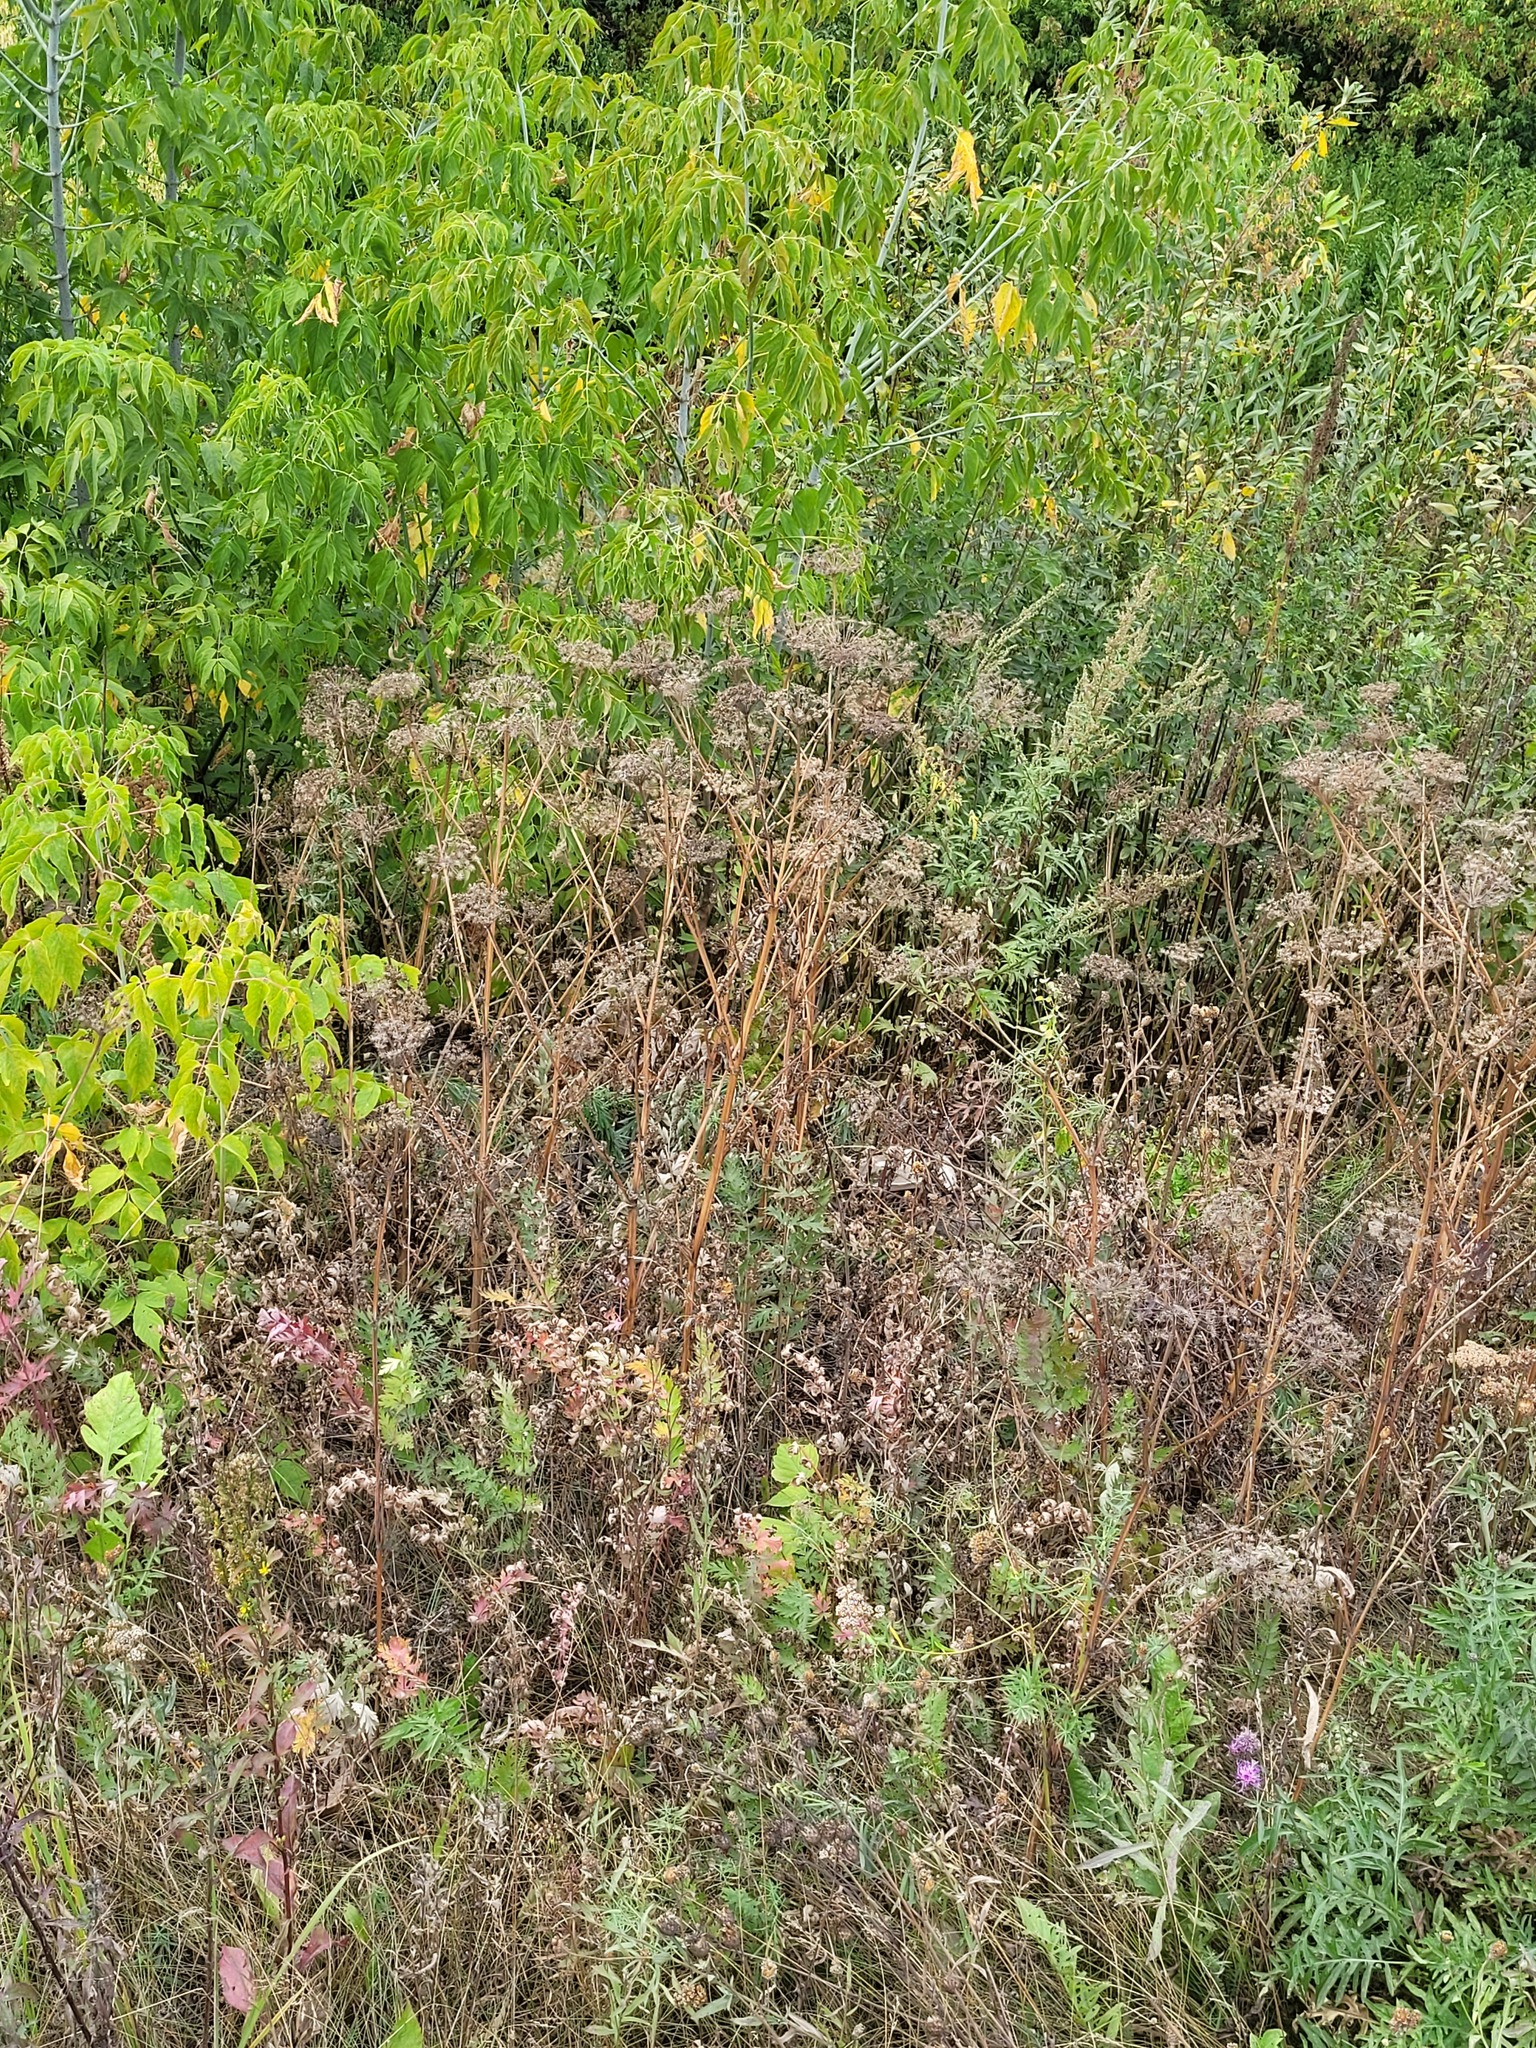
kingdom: Plantae
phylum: Tracheophyta
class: Magnoliopsida
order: Apiales
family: Apiaceae
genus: Seseli
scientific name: Seseli libanotis
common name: Mooncarrot
